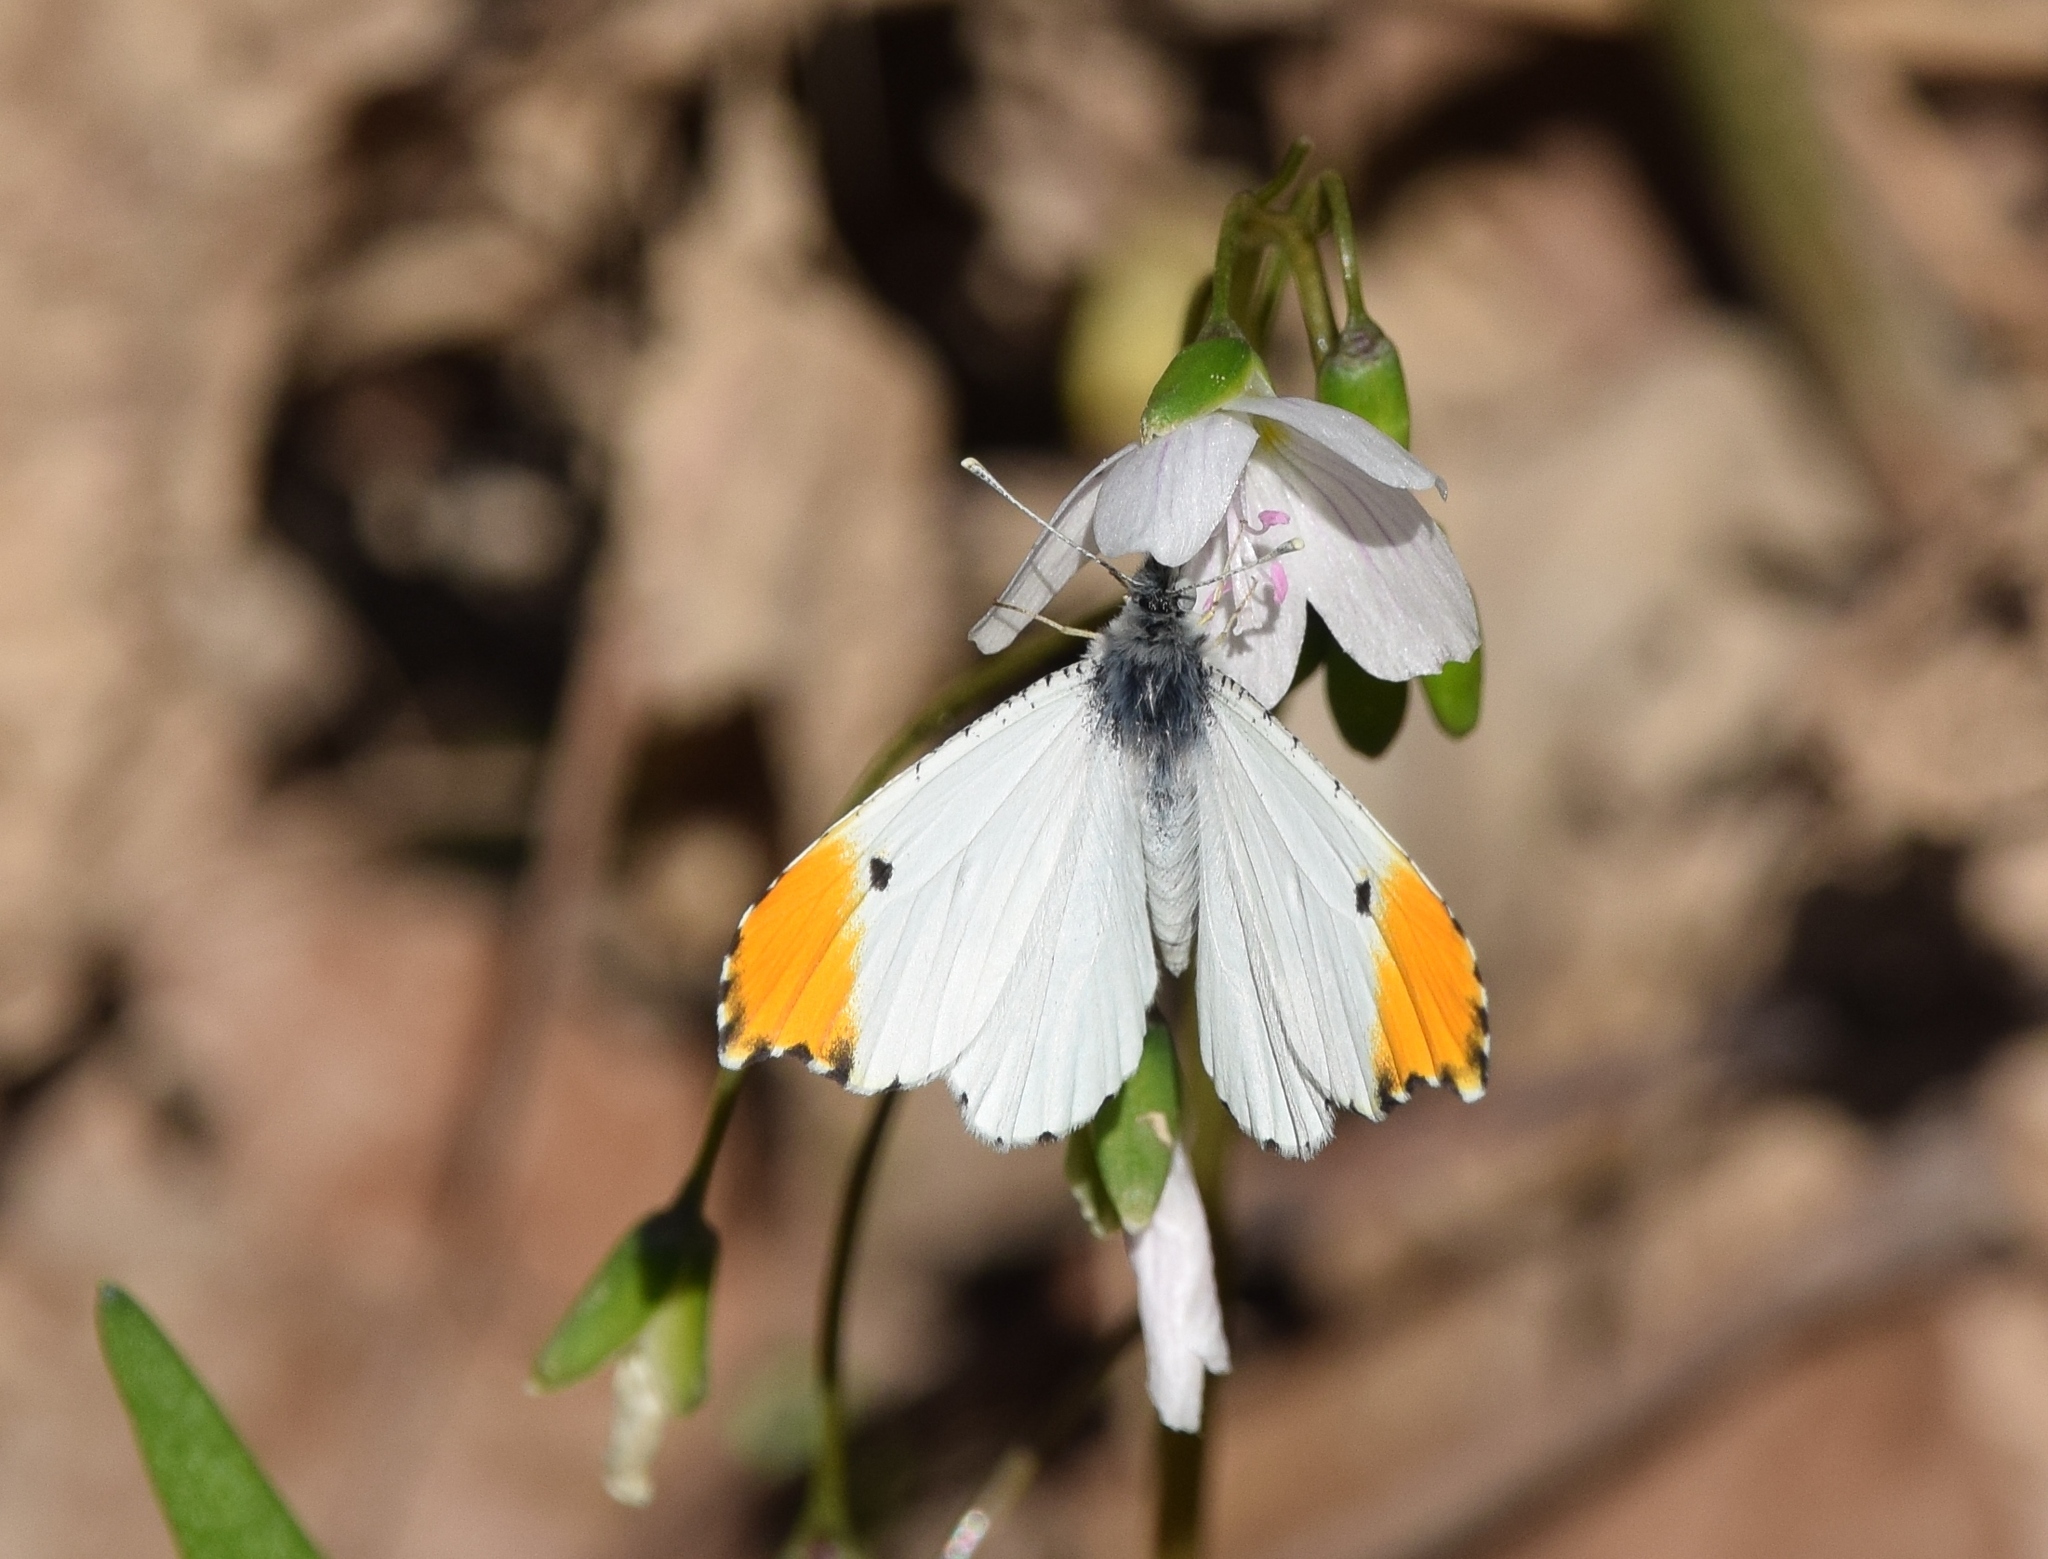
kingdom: Animalia
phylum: Arthropoda
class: Insecta
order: Lepidoptera
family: Pieridae
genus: Anthocharis
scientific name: Anthocharis midea
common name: Falcate orangetip
